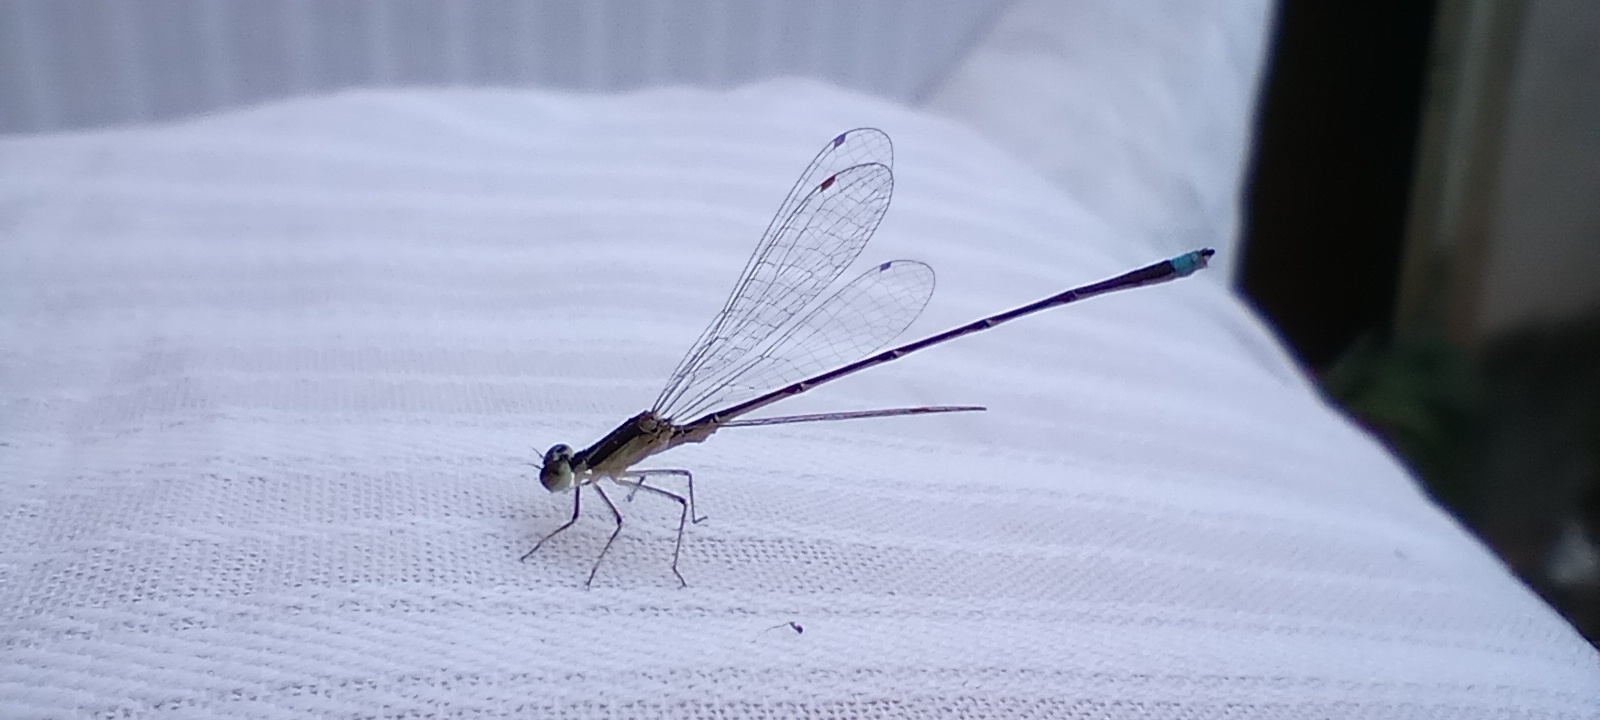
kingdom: Animalia
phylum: Arthropoda
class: Insecta
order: Odonata
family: Coenagrionidae
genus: Argentagrion
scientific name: Argentagrion ambiguum
